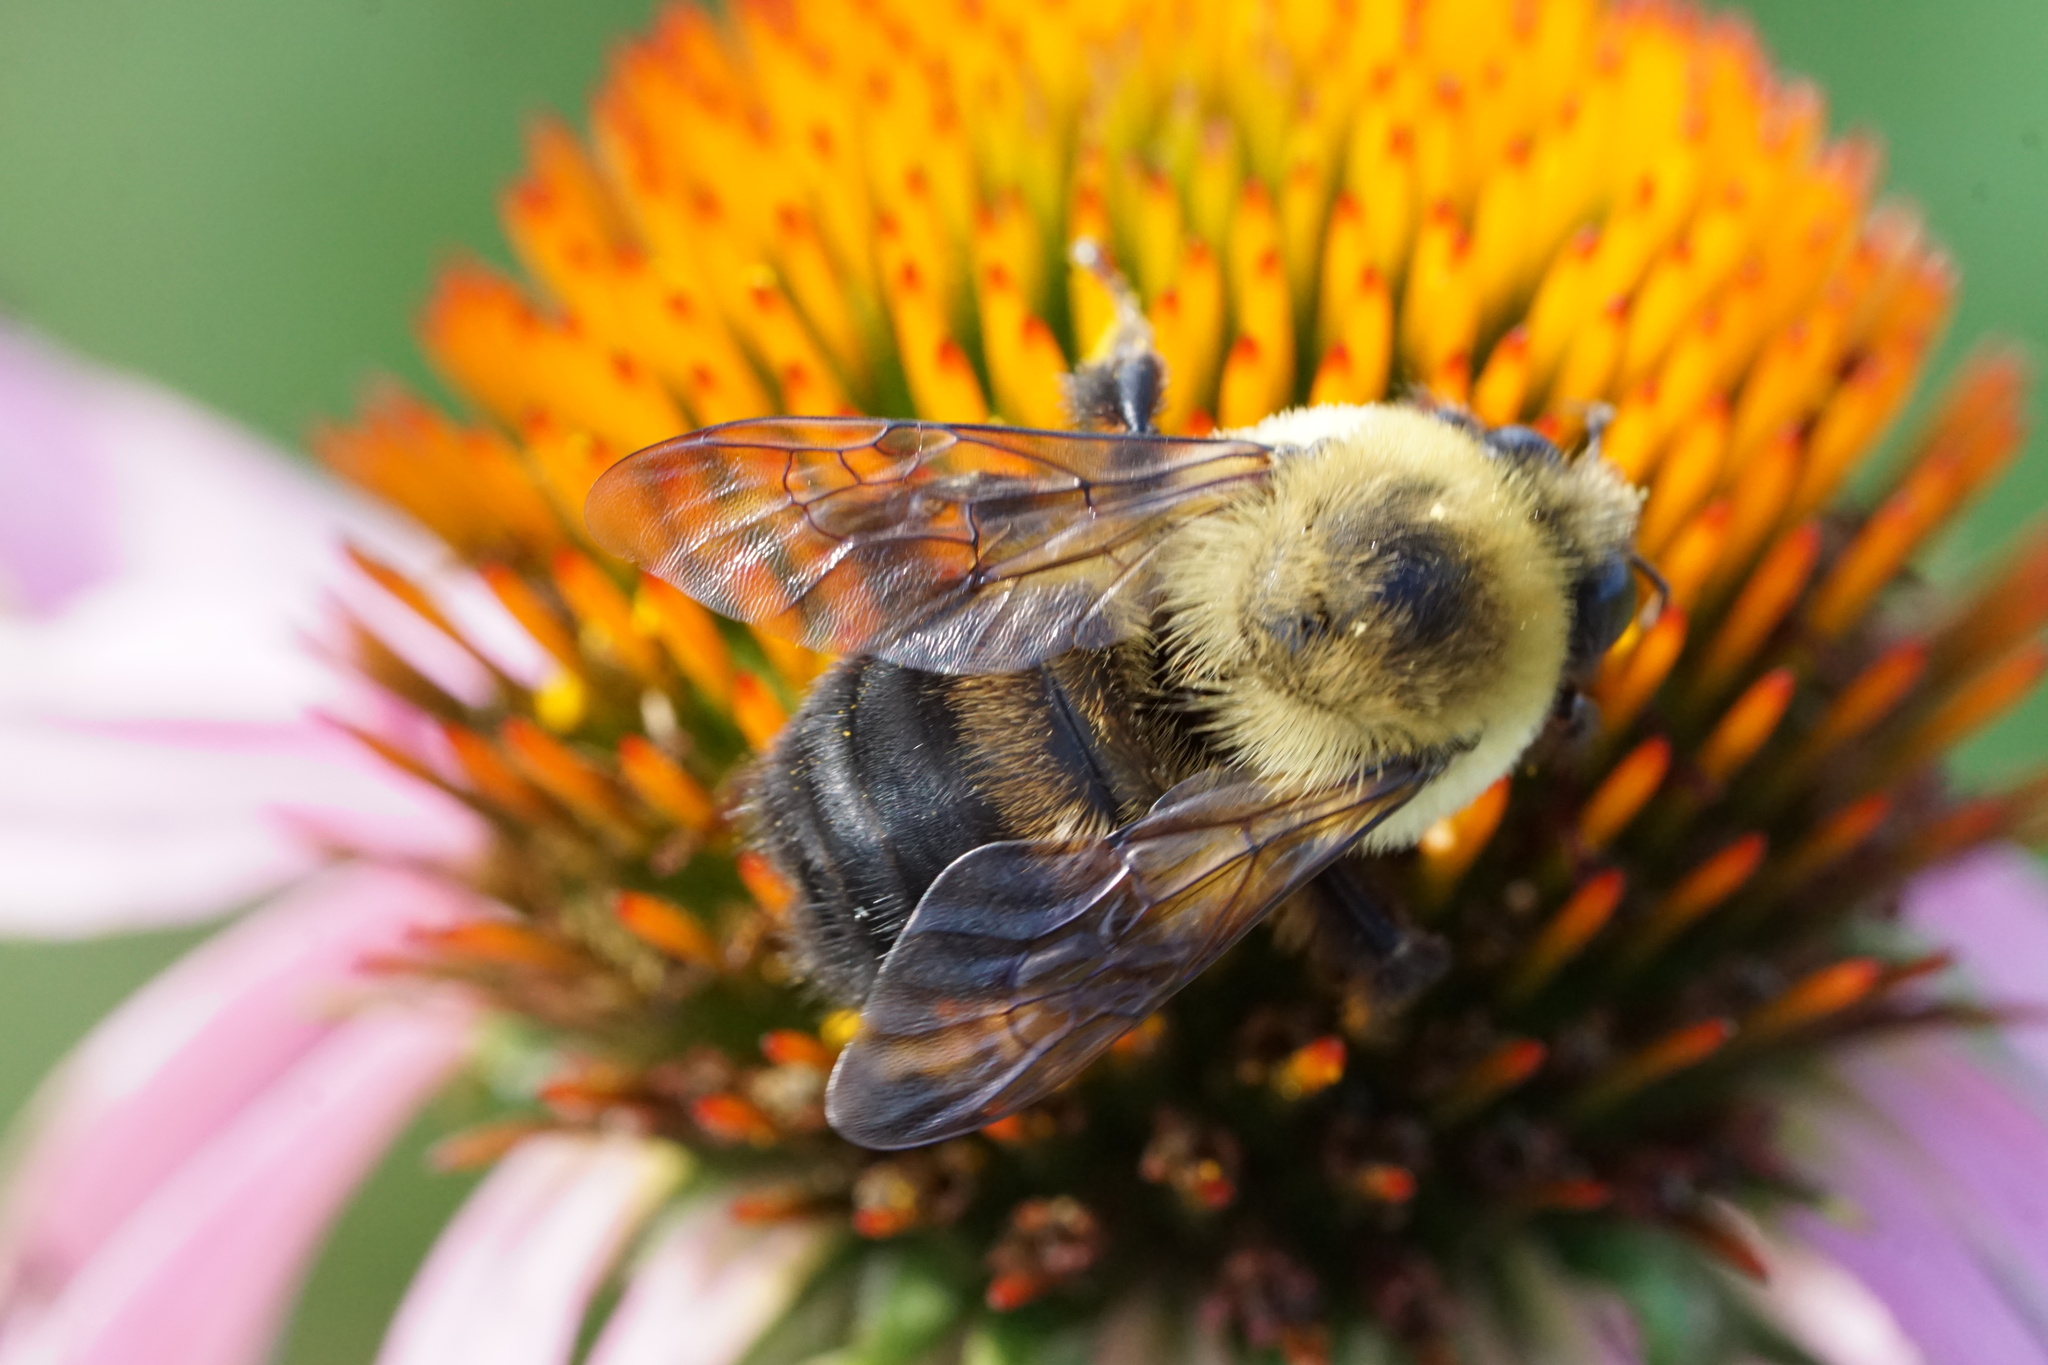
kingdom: Animalia
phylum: Arthropoda
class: Insecta
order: Hymenoptera
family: Apidae
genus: Bombus
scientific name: Bombus griseocollis
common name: Brown-belted bumble bee
